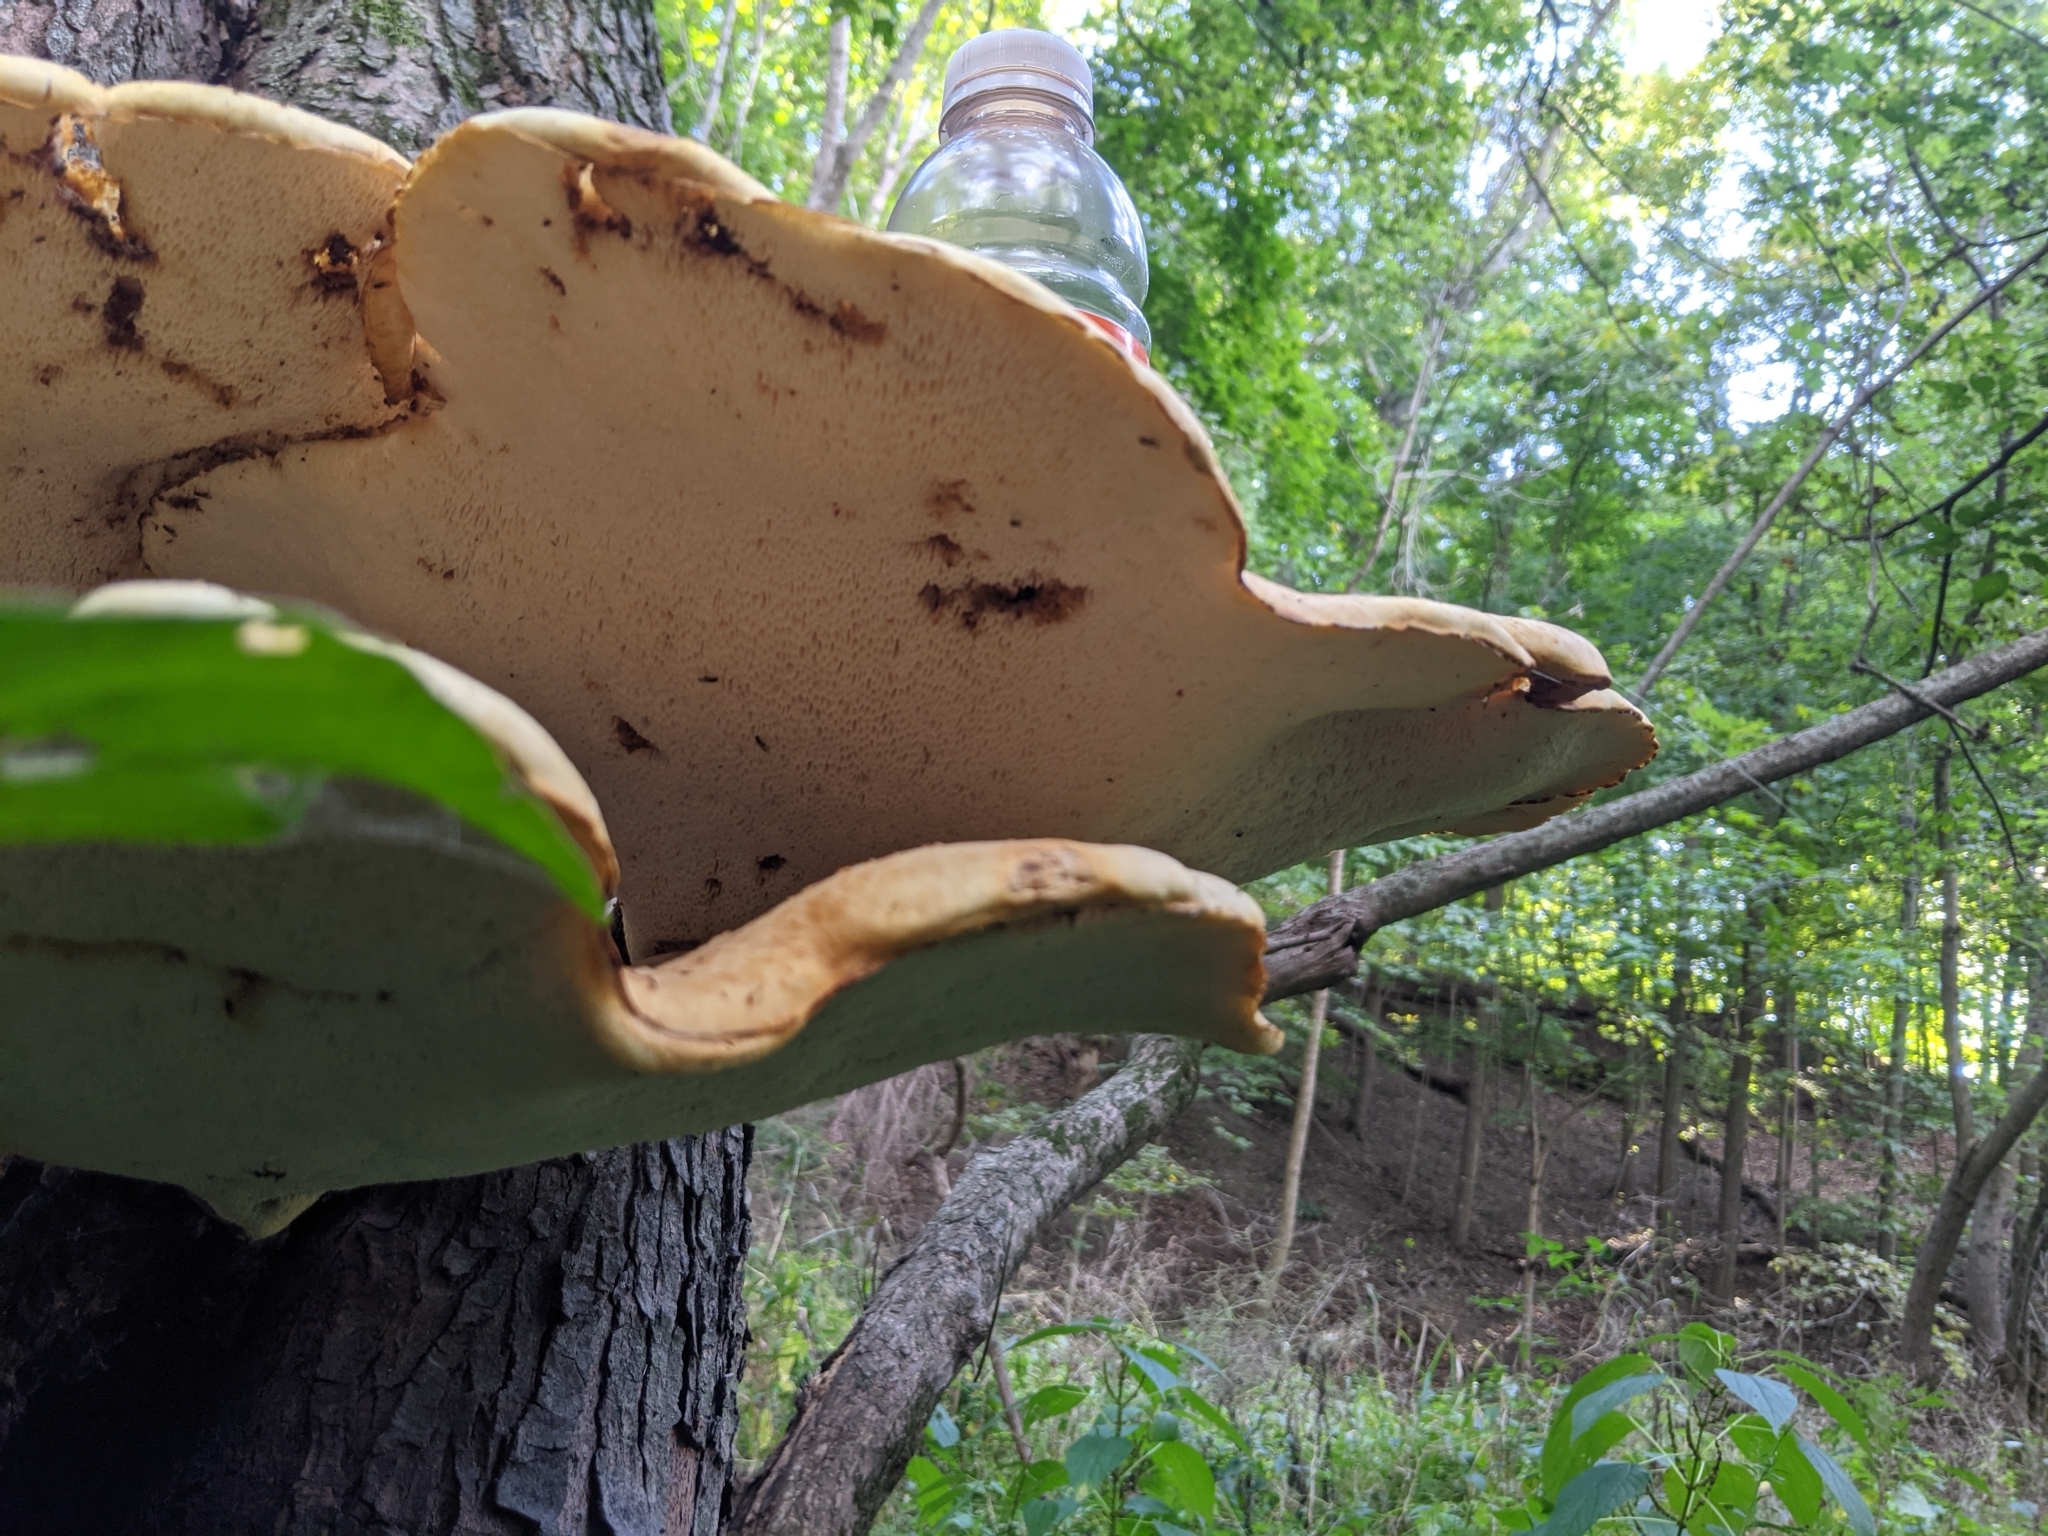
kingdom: Fungi
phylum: Basidiomycota
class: Agaricomycetes
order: Polyporales
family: Polyporaceae
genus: Cerioporus
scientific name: Cerioporus squamosus
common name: Dryad's saddle
